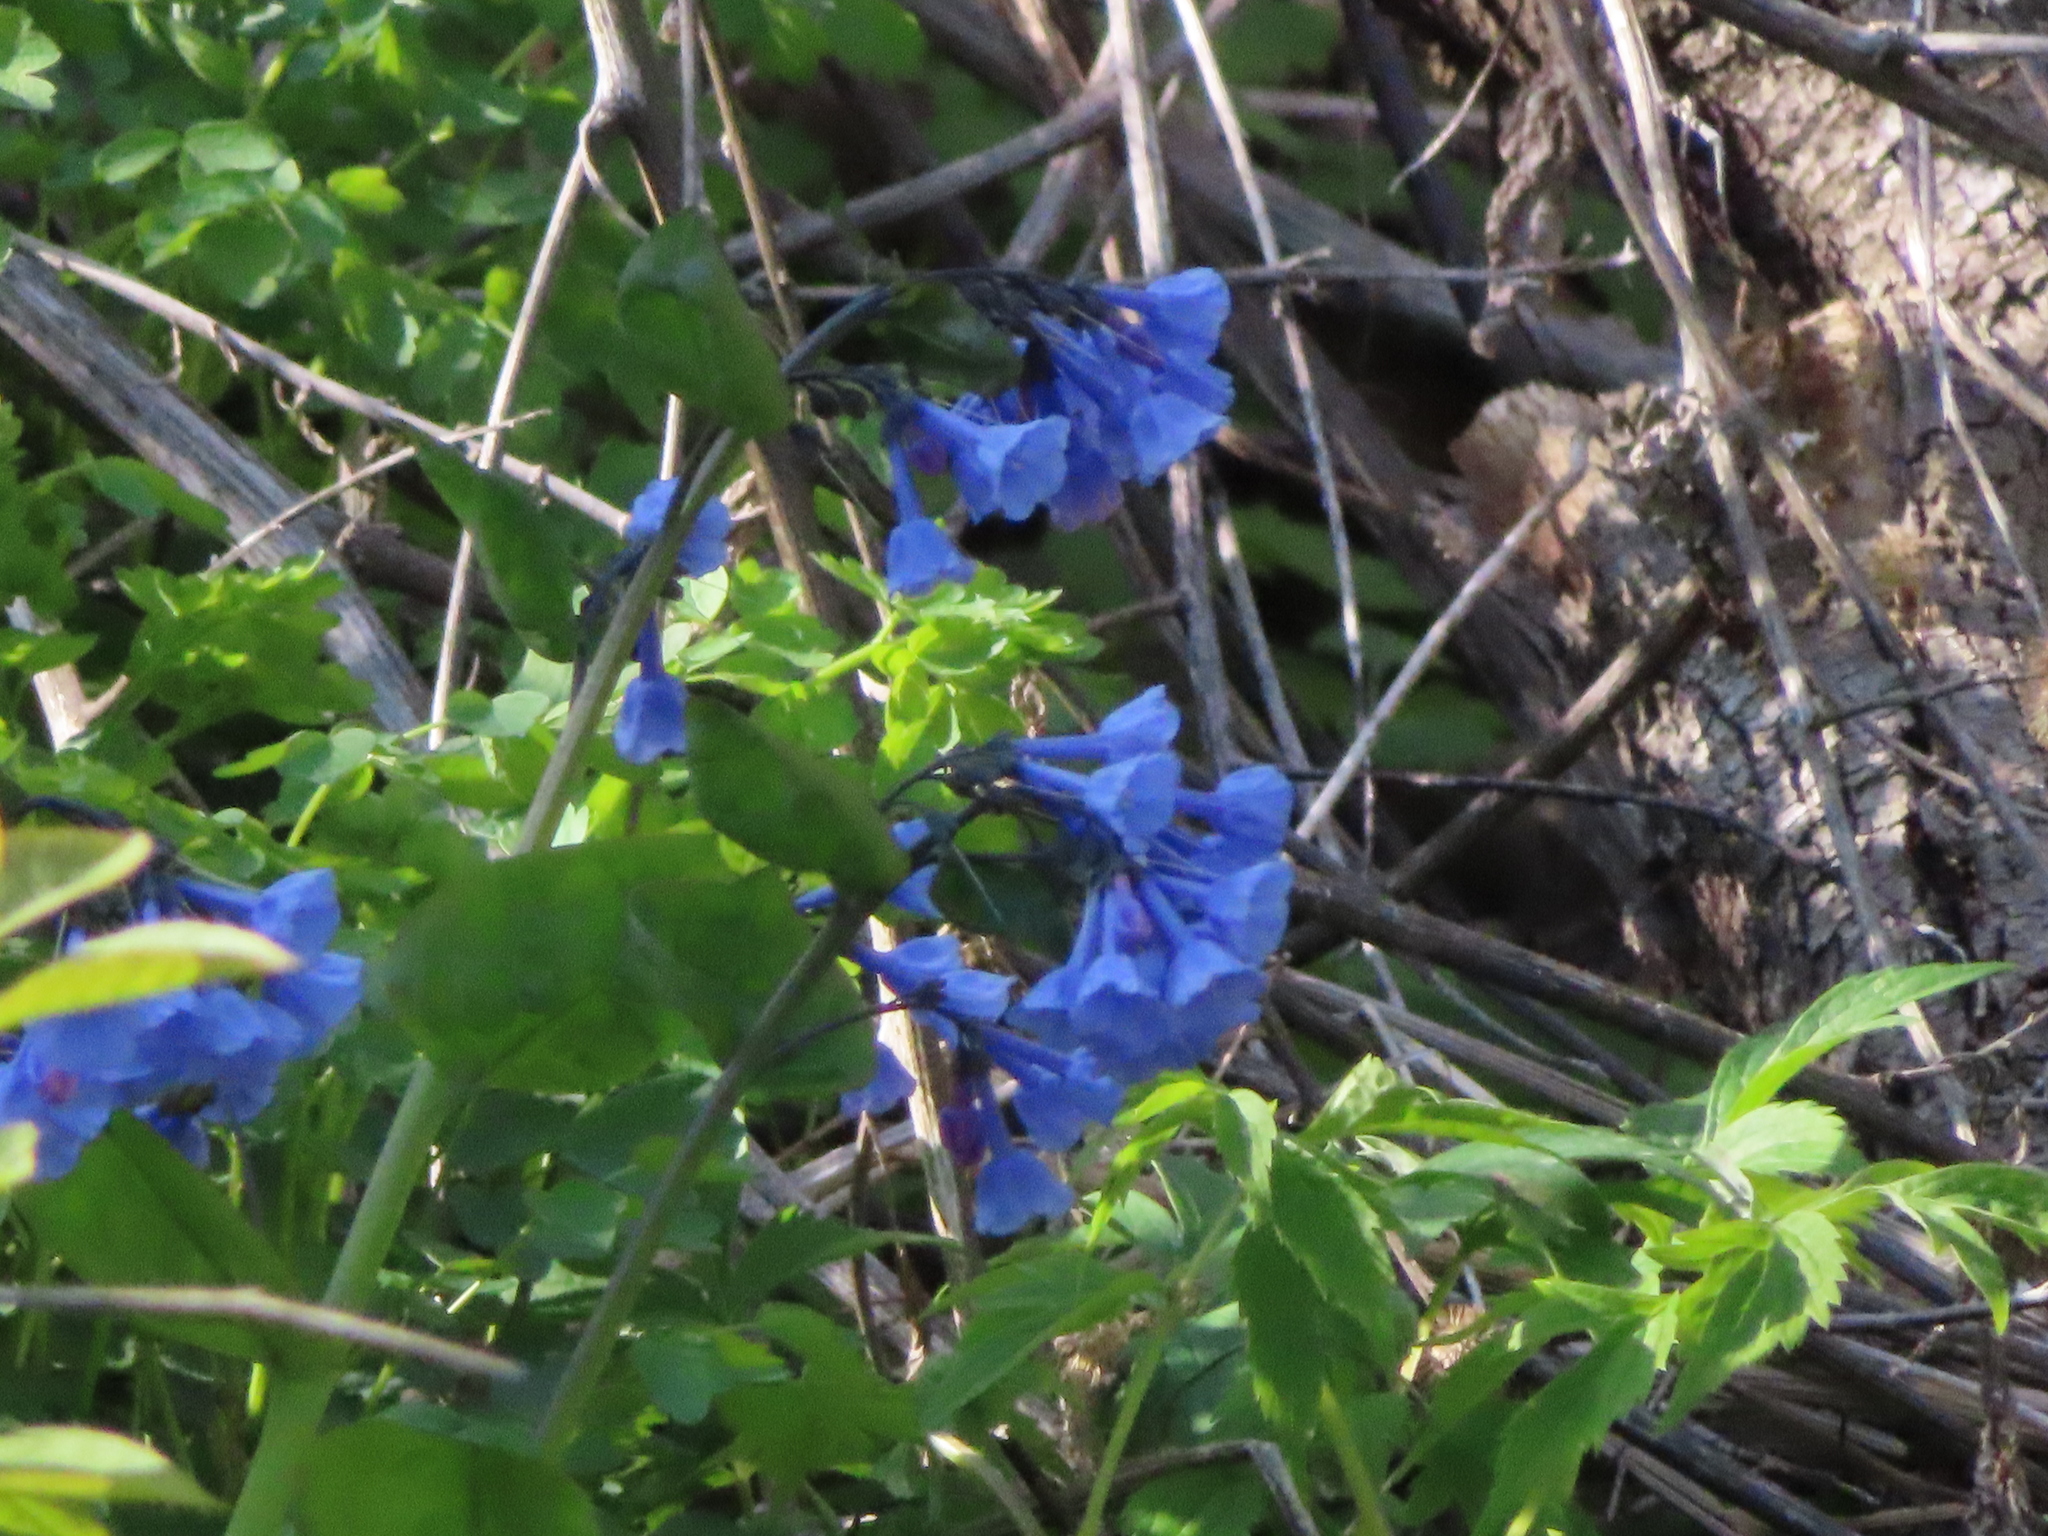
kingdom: Plantae
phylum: Tracheophyta
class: Magnoliopsida
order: Boraginales
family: Boraginaceae
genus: Mertensia
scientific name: Mertensia virginica
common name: Virginia bluebells
